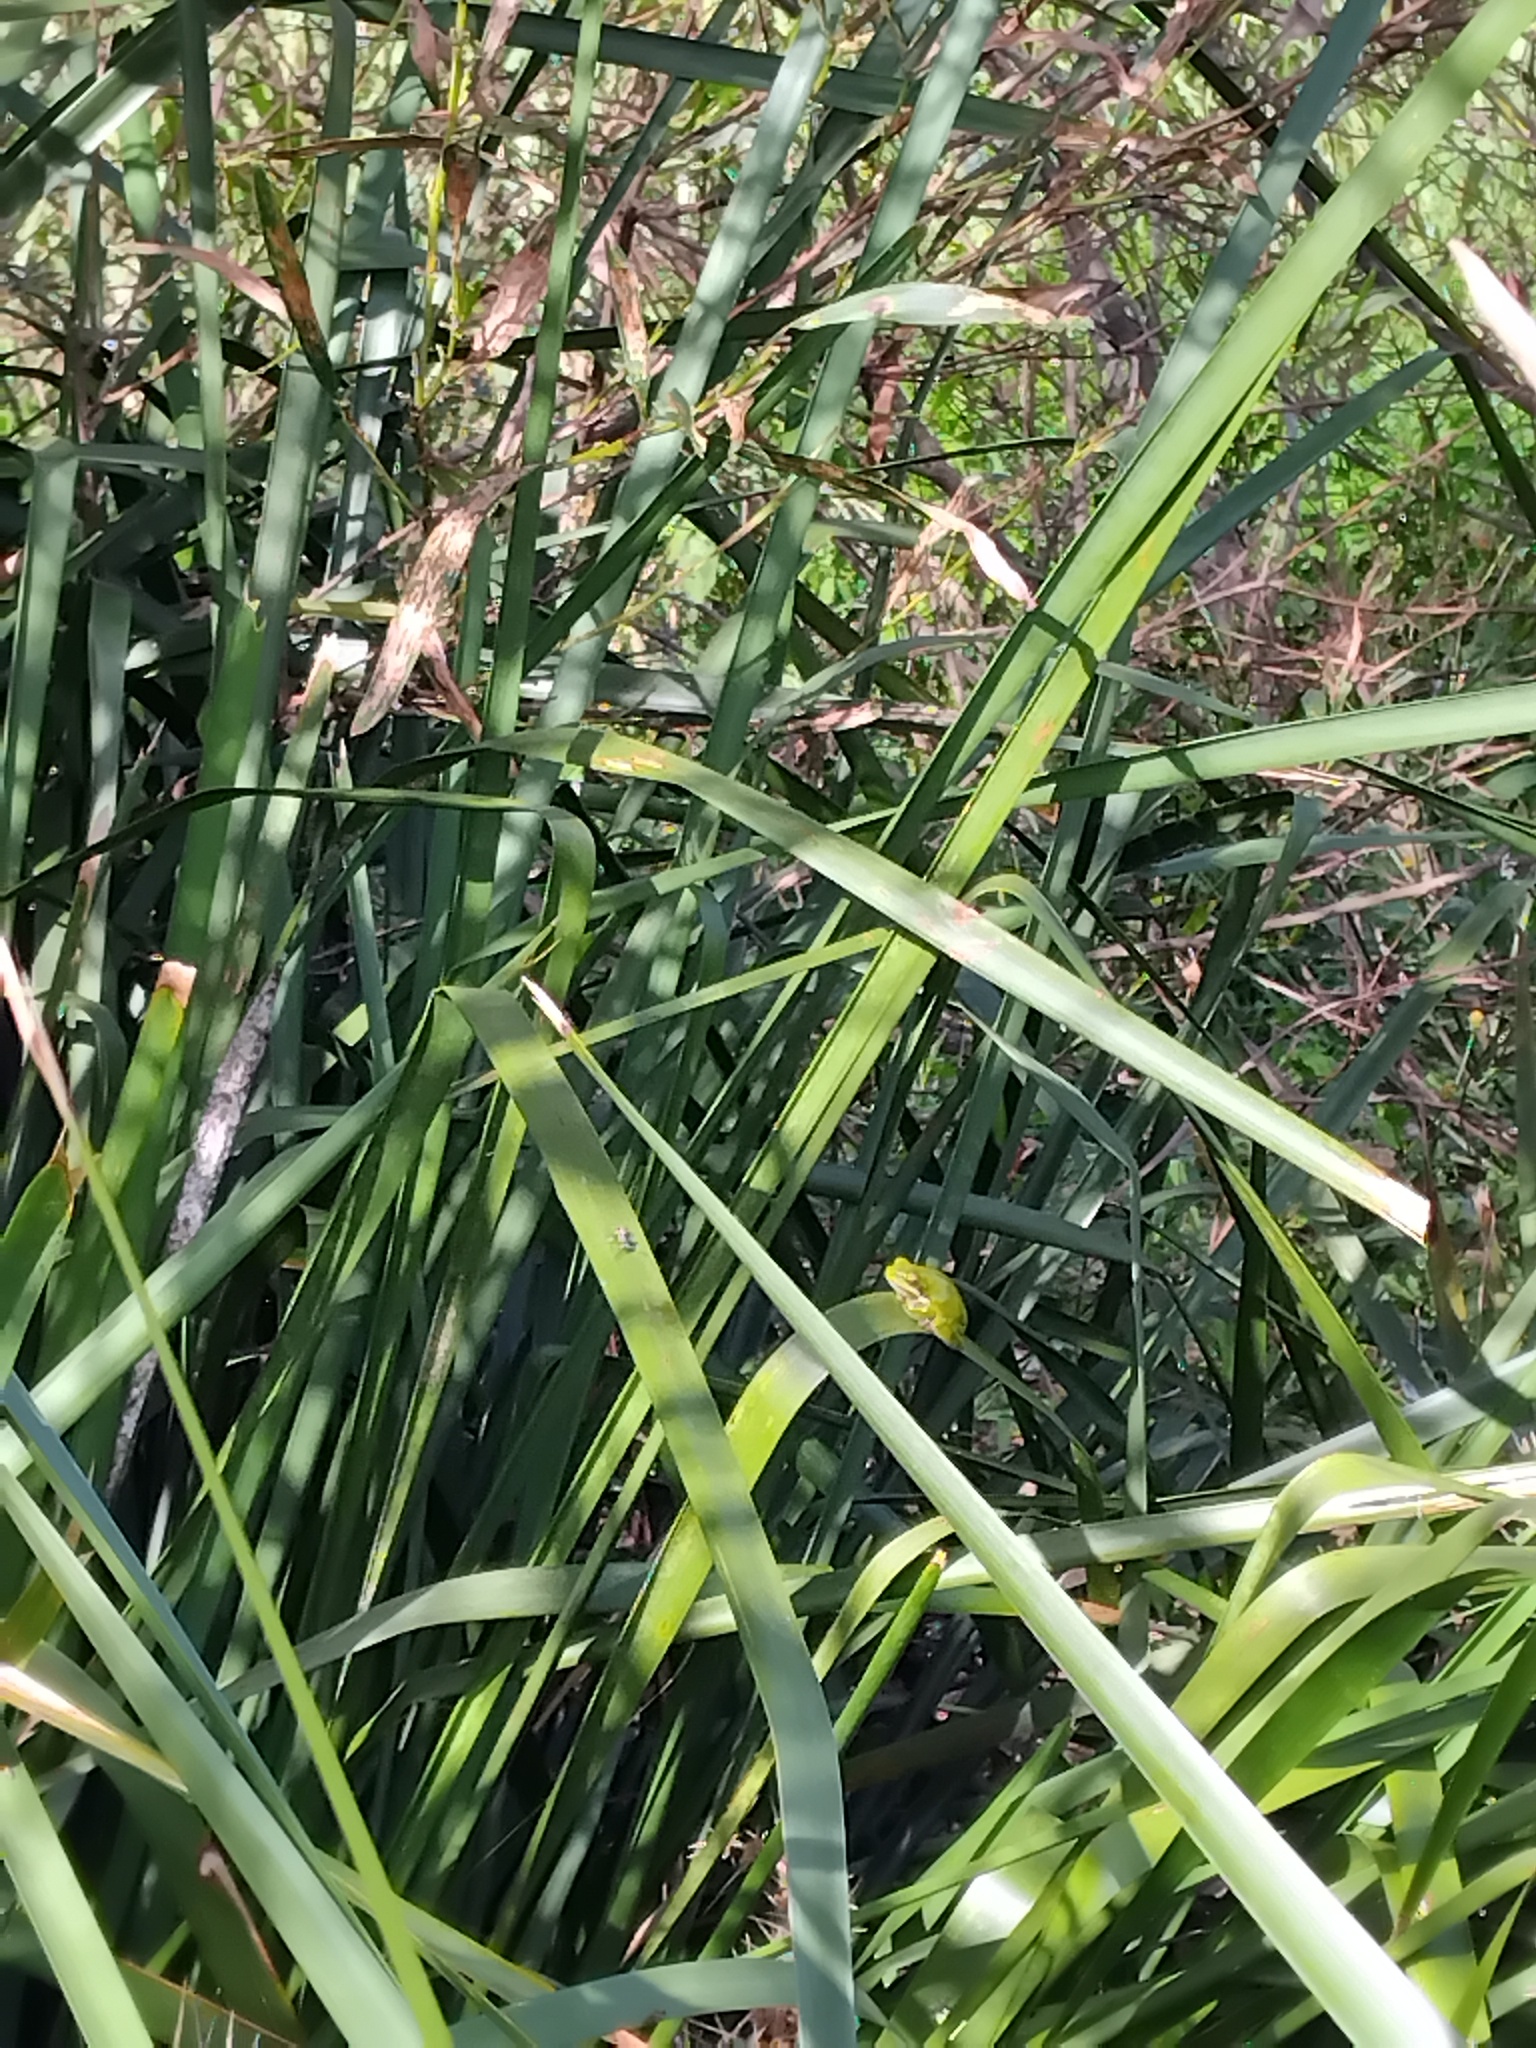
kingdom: Animalia
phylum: Chordata
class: Amphibia
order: Anura
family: Pelodryadidae
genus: Litoria
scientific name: Litoria fallax
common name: Eastern dwarf treefrog
